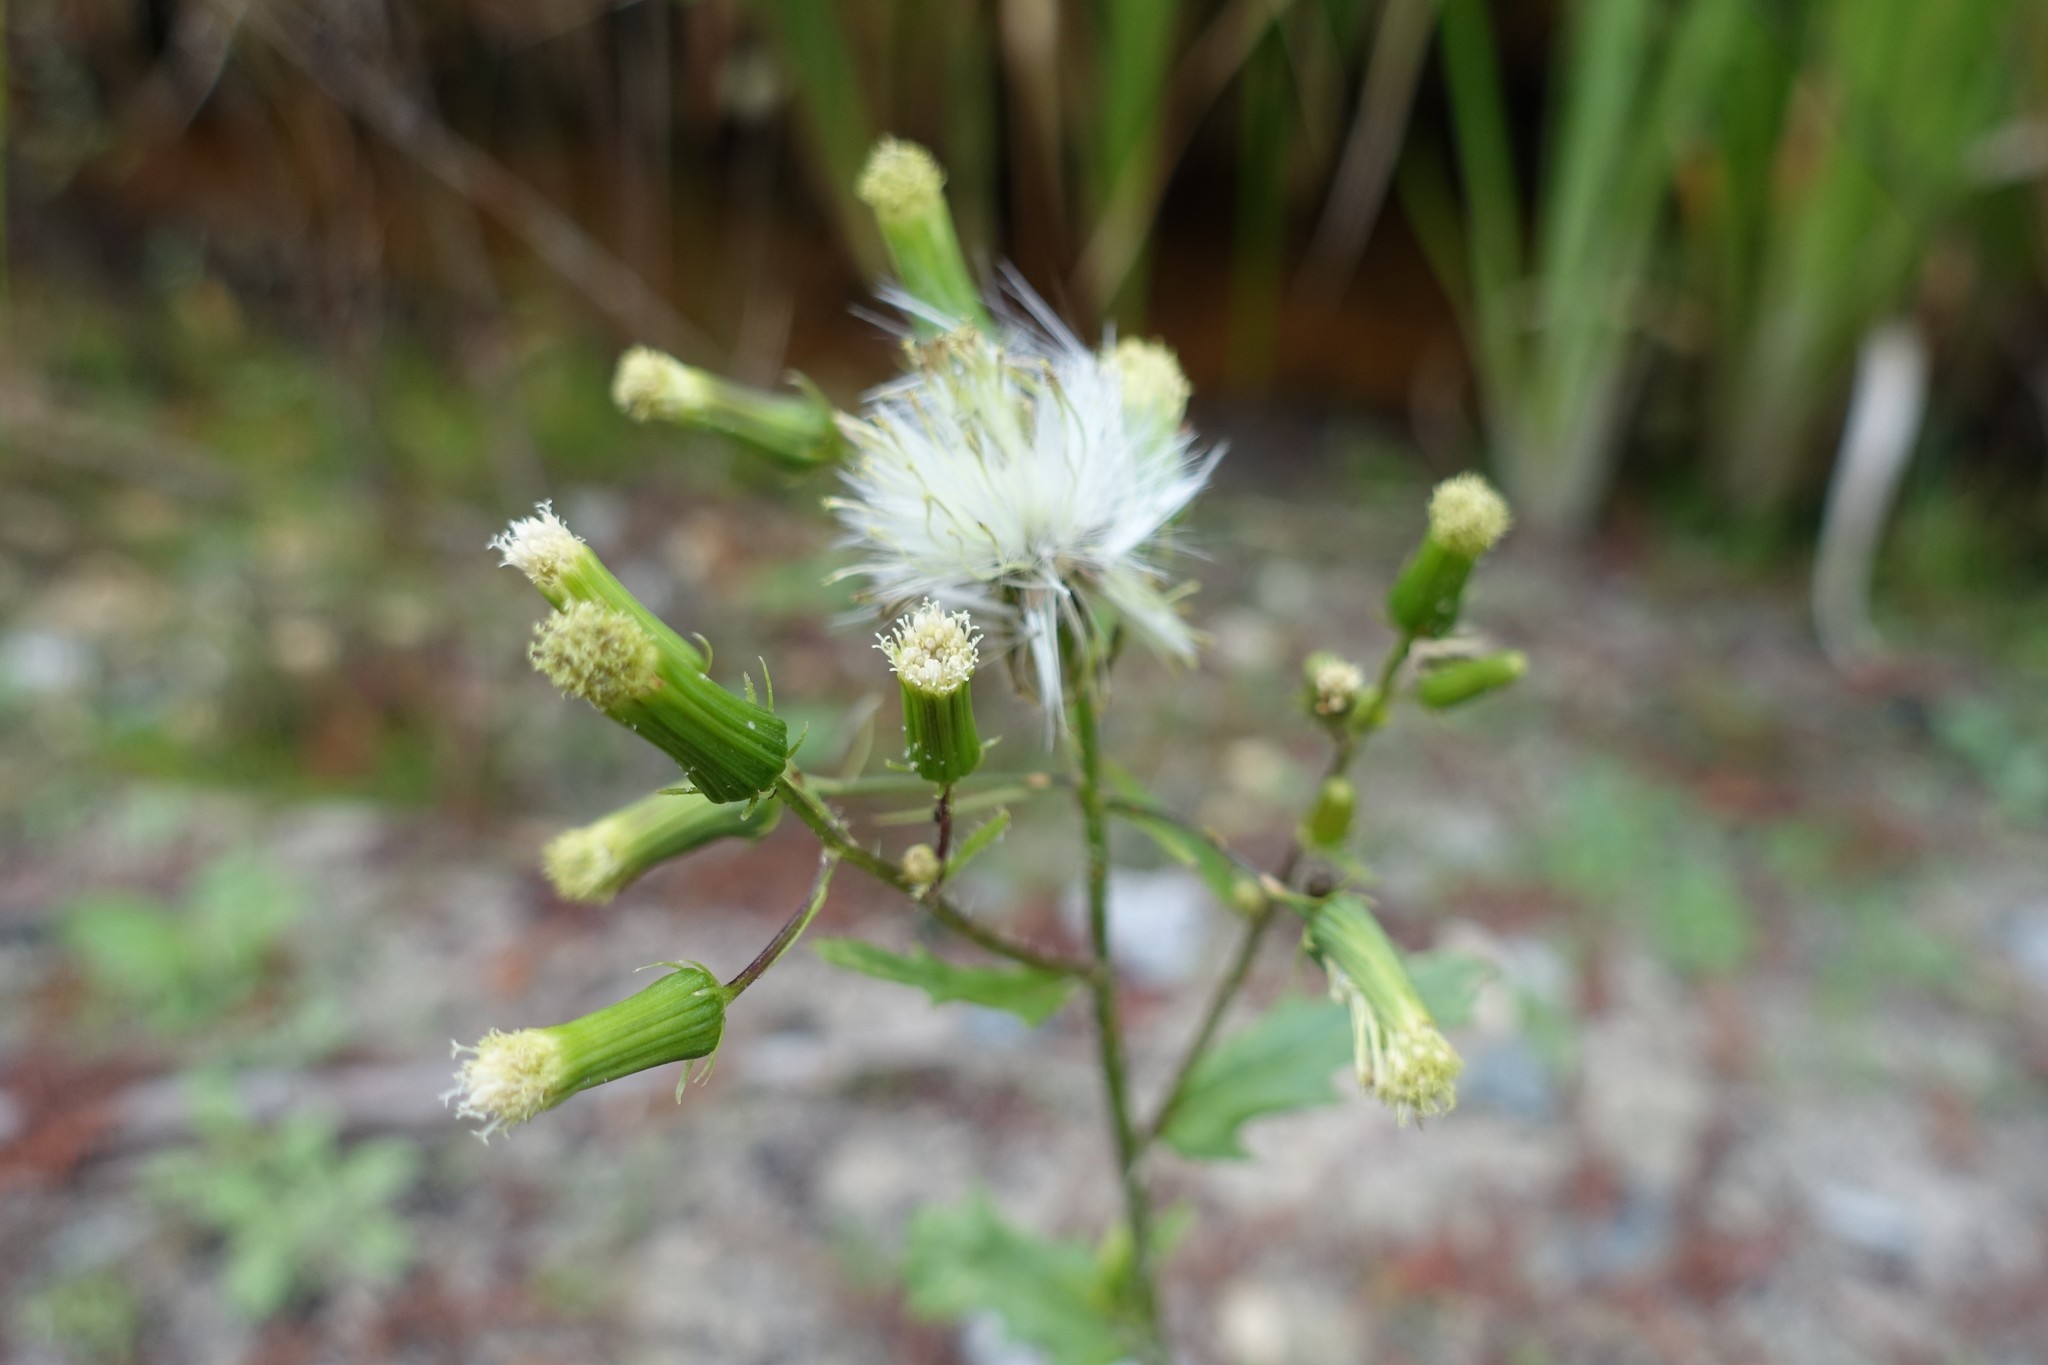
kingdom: Plantae
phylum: Tracheophyta
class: Magnoliopsida
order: Asterales
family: Asteraceae
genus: Erechtites
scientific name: Erechtites hieraciifolius
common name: American burnweed
